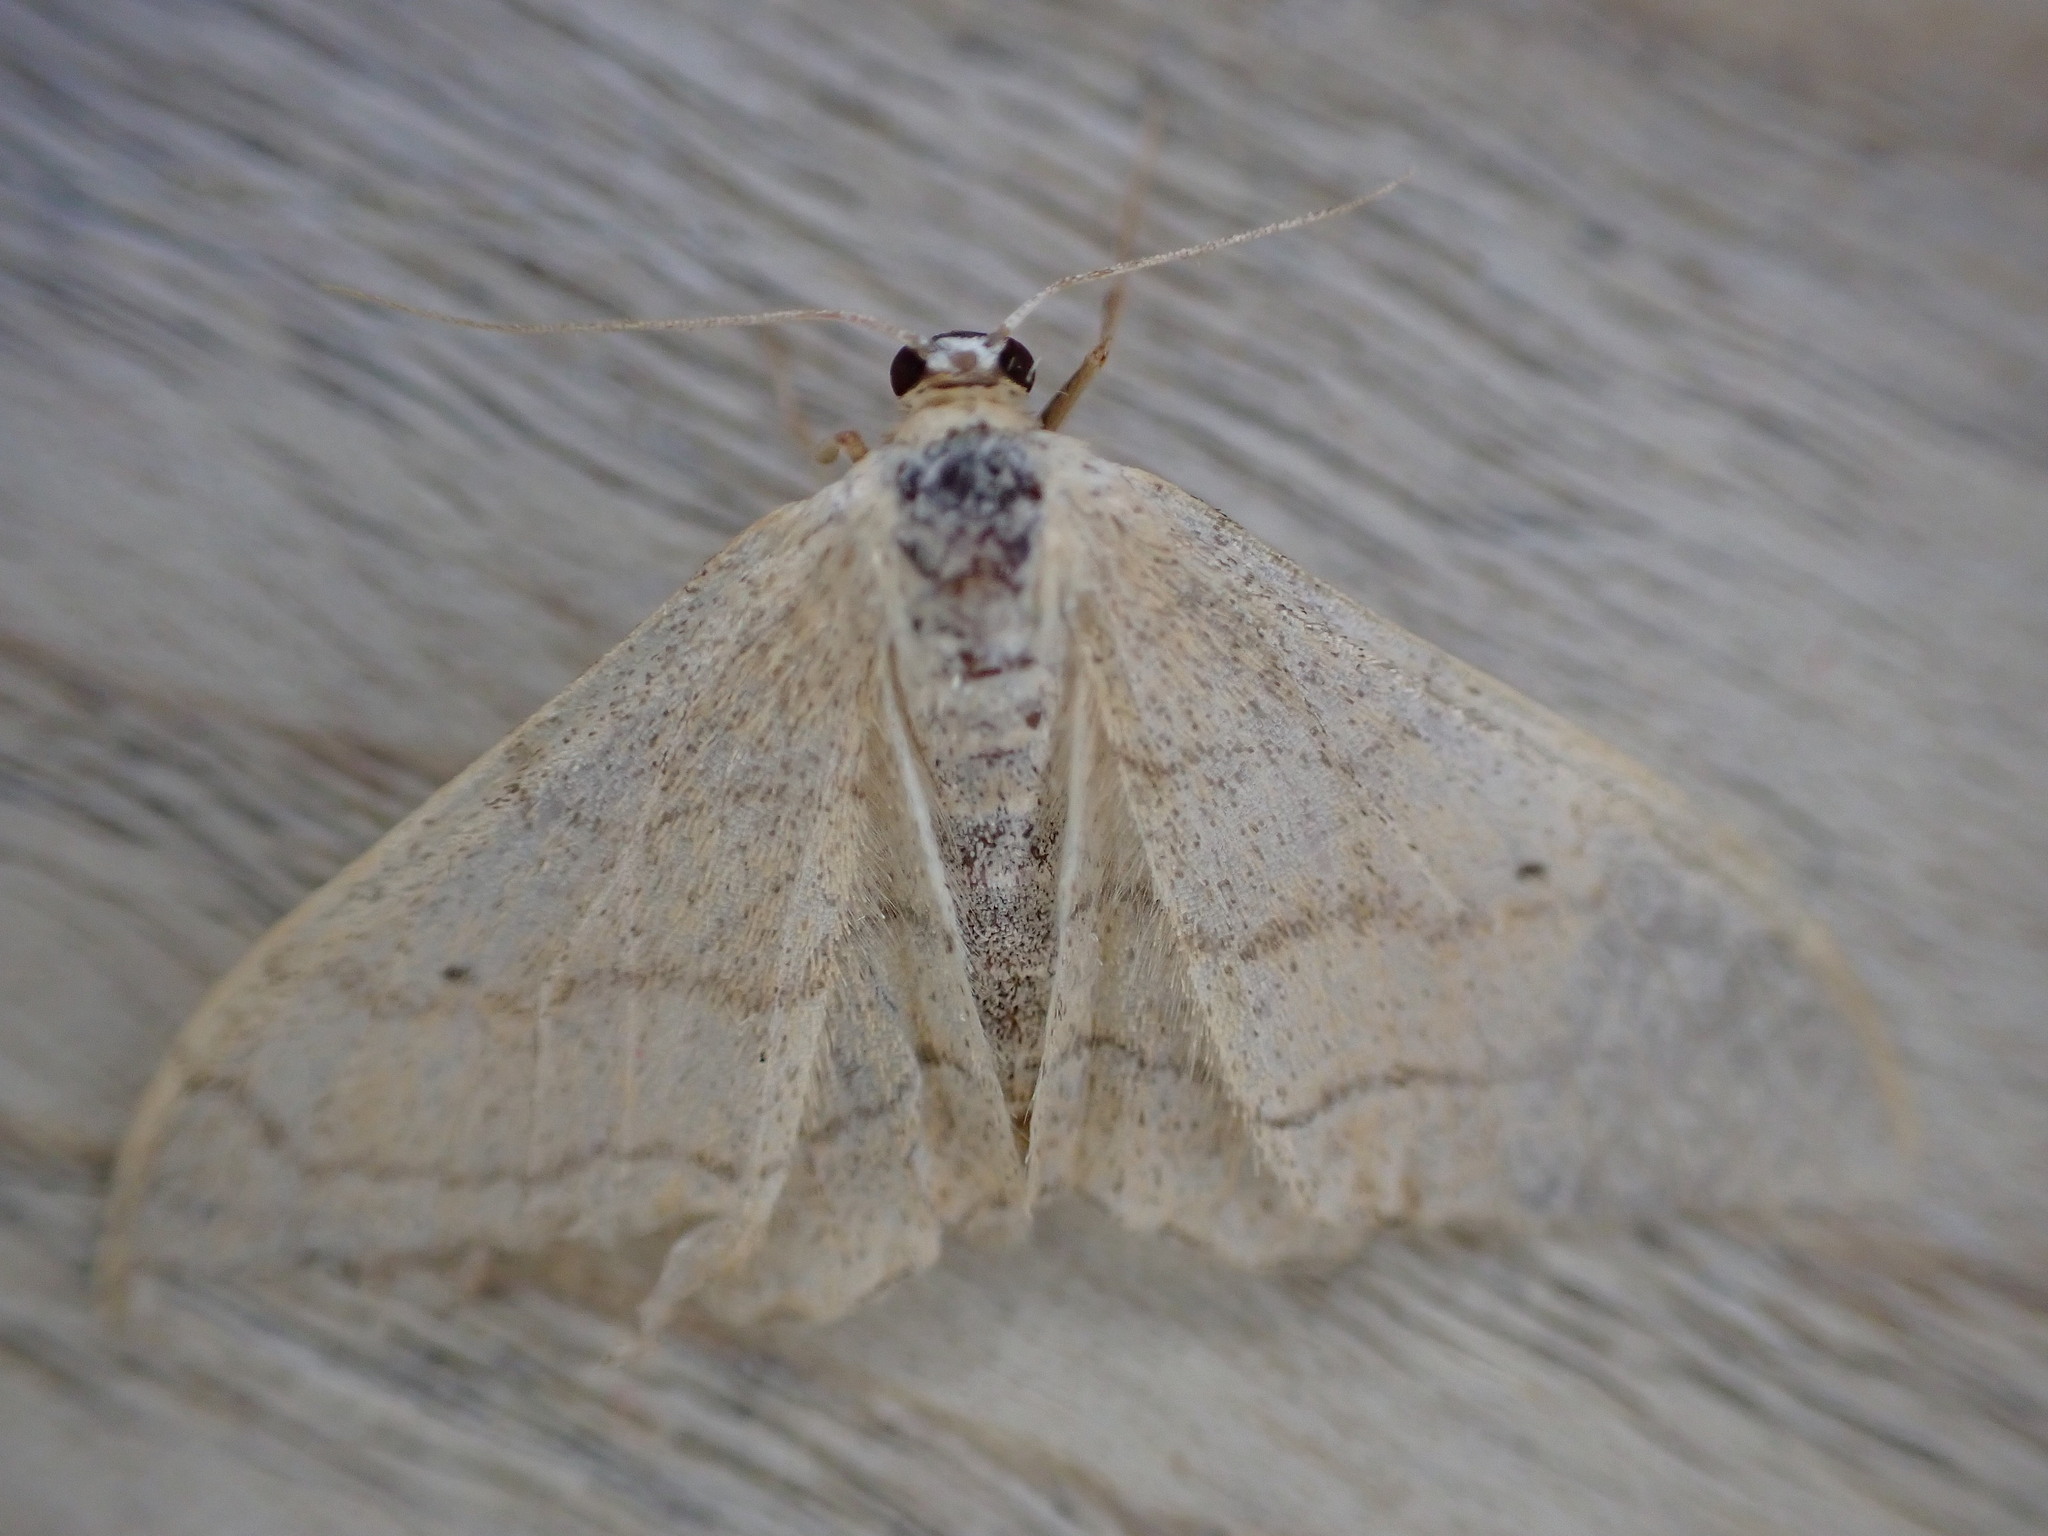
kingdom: Animalia
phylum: Arthropoda
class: Insecta
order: Lepidoptera
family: Geometridae
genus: Idaea
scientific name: Idaea aversata
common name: Riband wave
